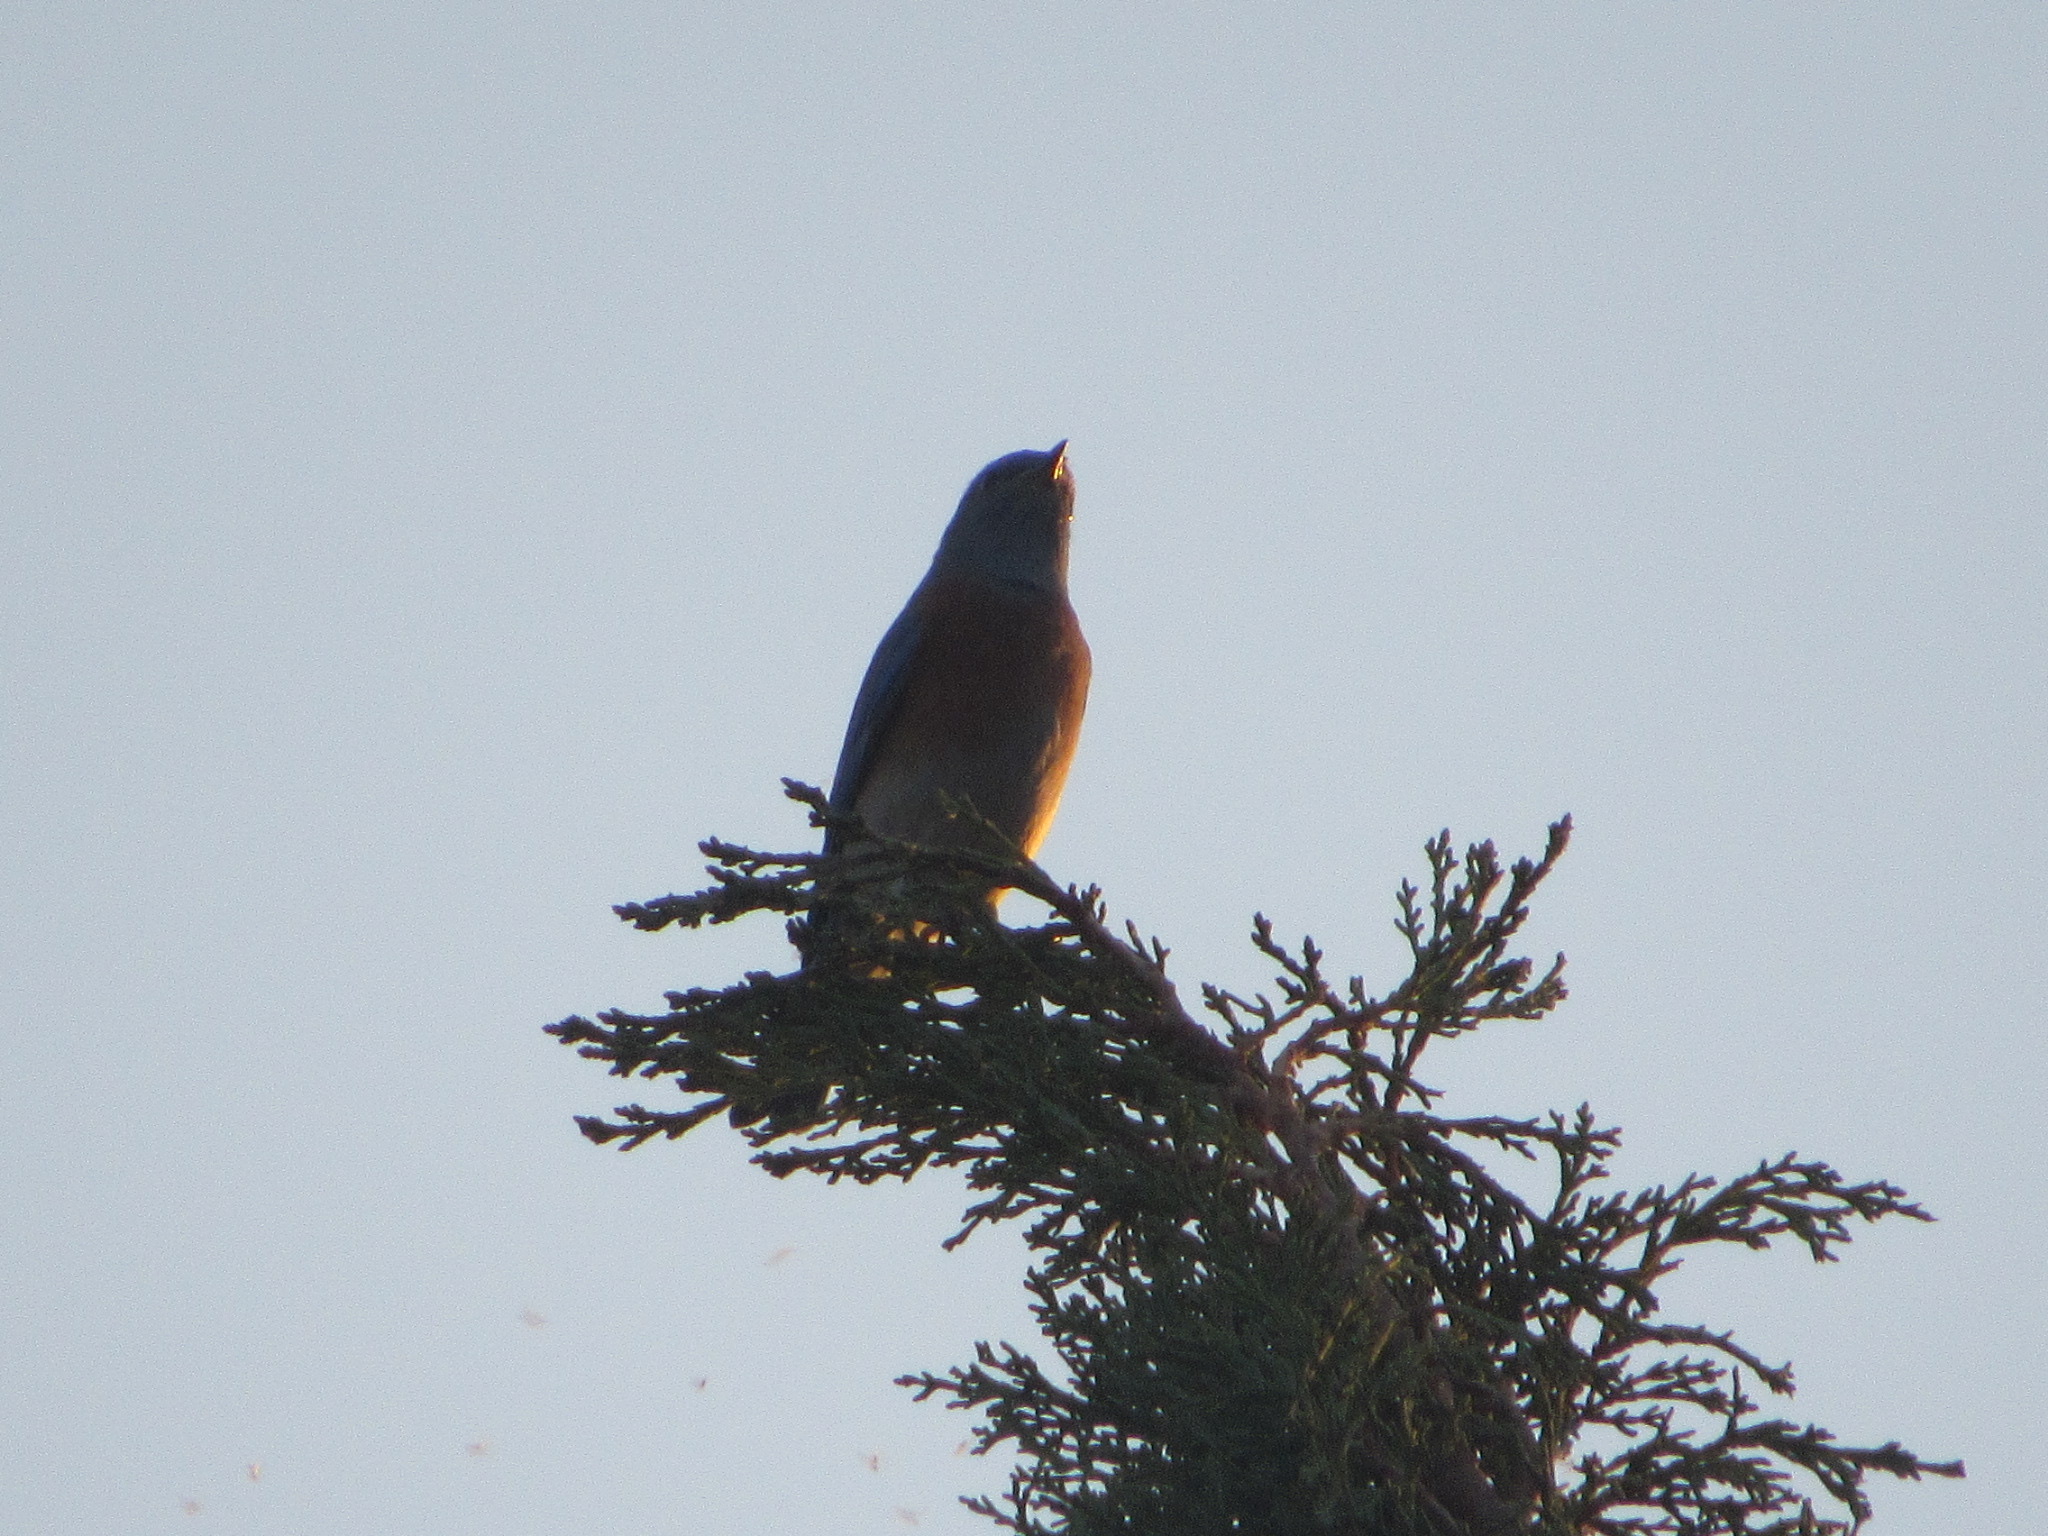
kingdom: Animalia
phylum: Chordata
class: Aves
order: Passeriformes
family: Turdidae
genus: Sialia
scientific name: Sialia mexicana
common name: Western bluebird
